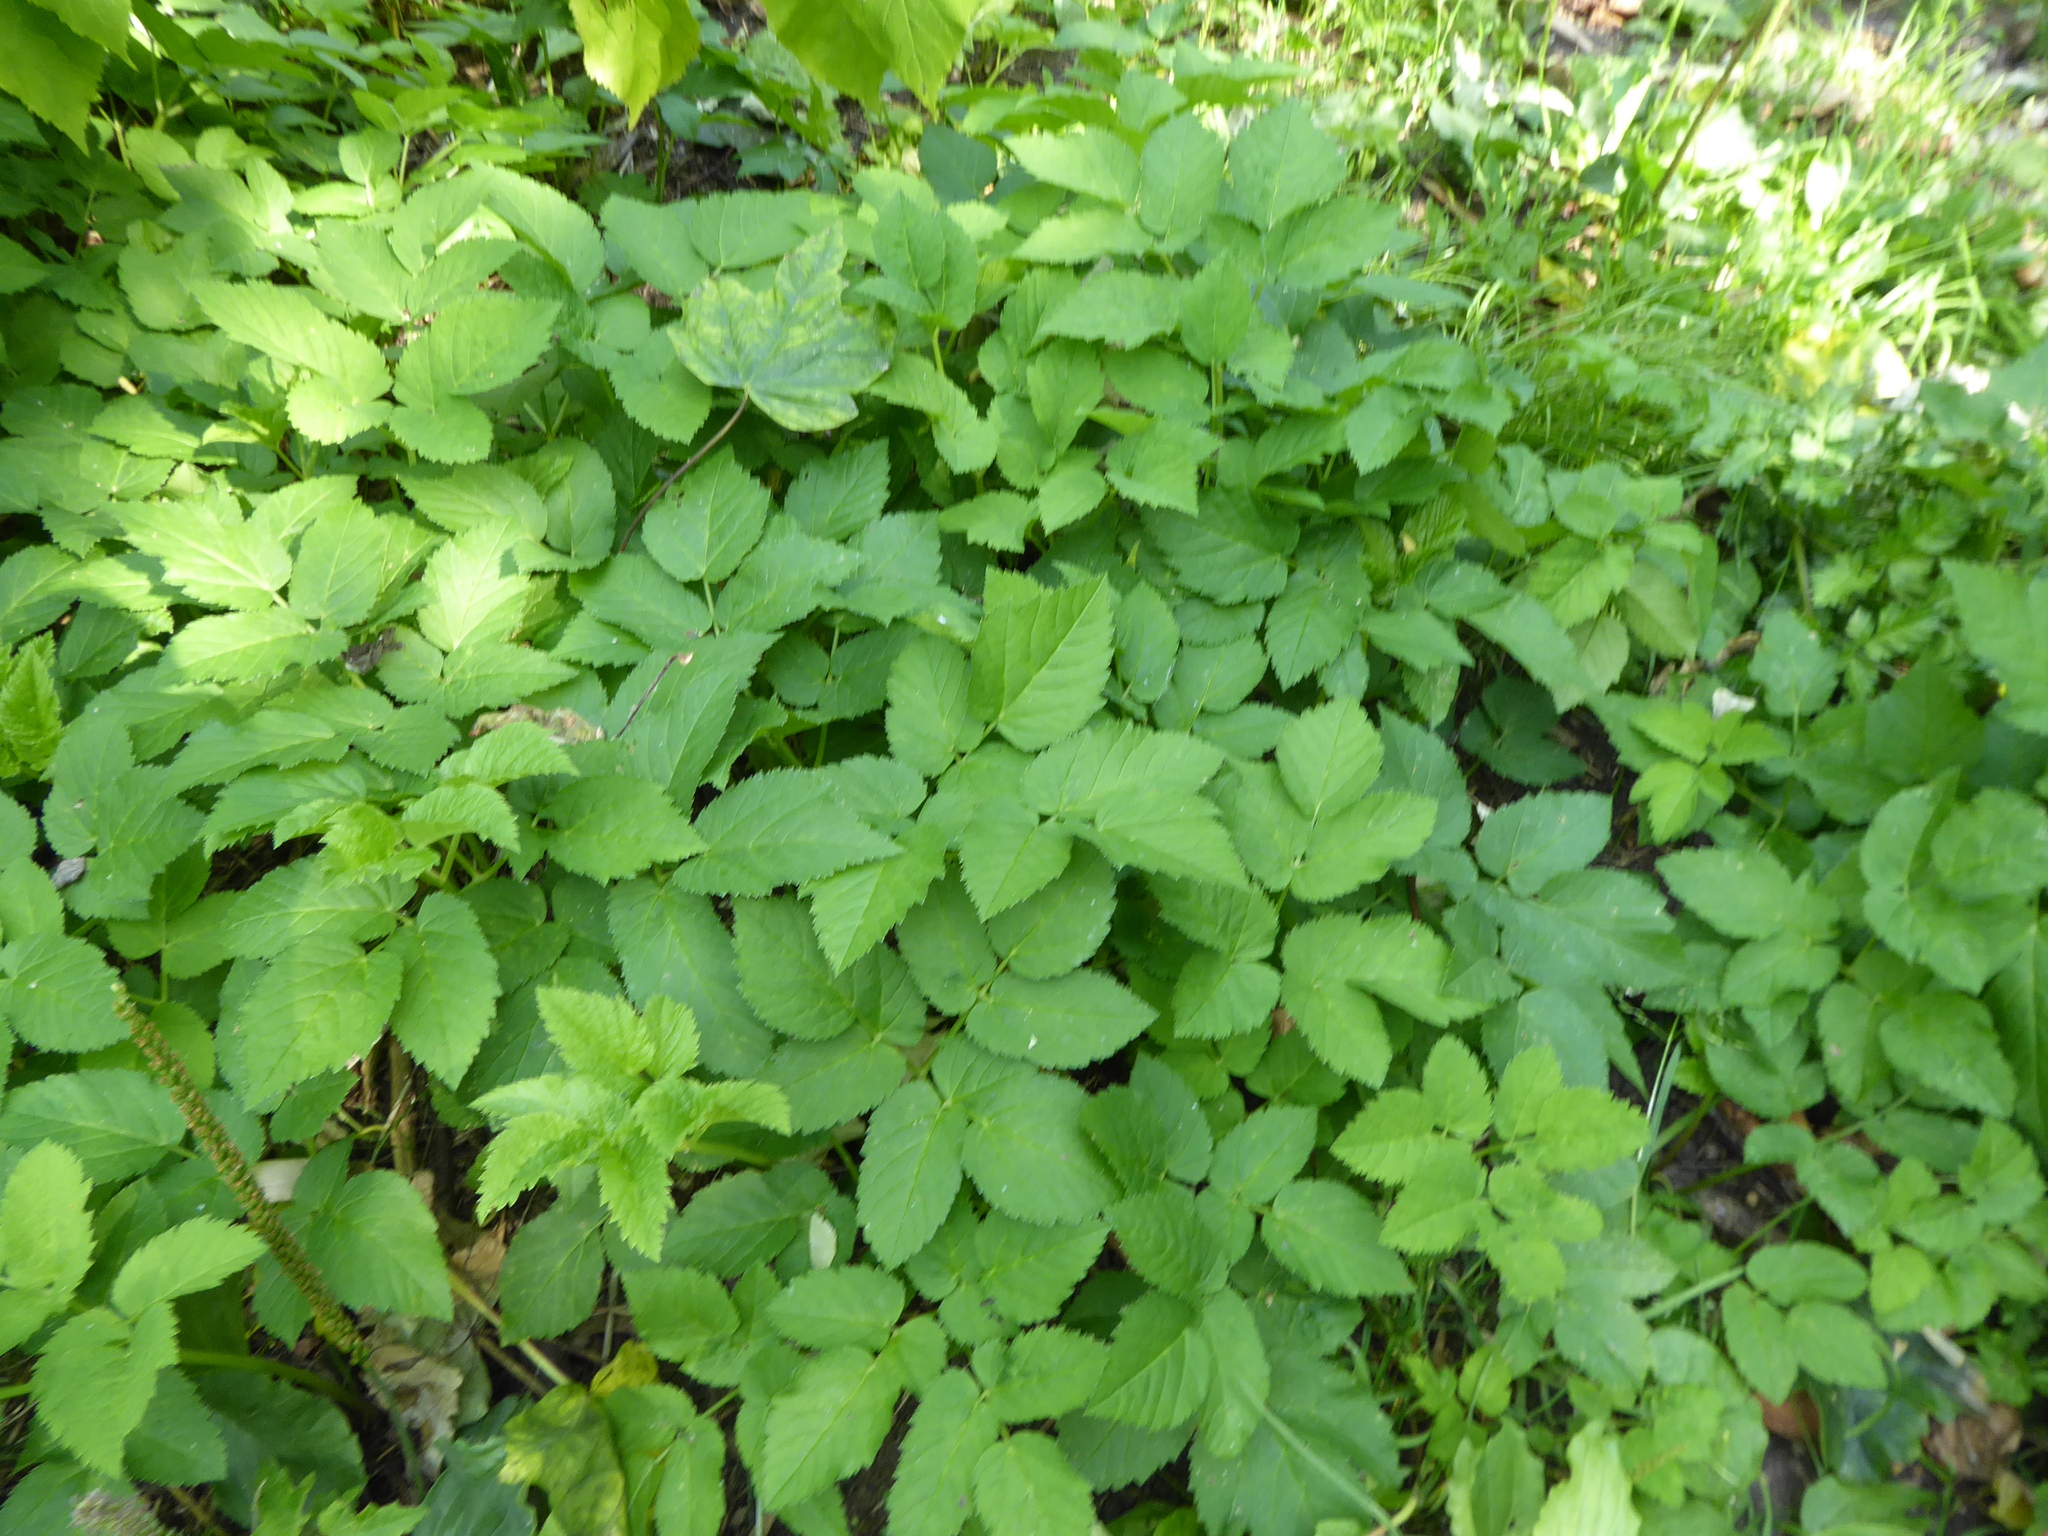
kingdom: Plantae
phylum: Tracheophyta
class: Magnoliopsida
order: Apiales
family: Apiaceae
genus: Aegopodium
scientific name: Aegopodium podagraria
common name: Ground-elder
